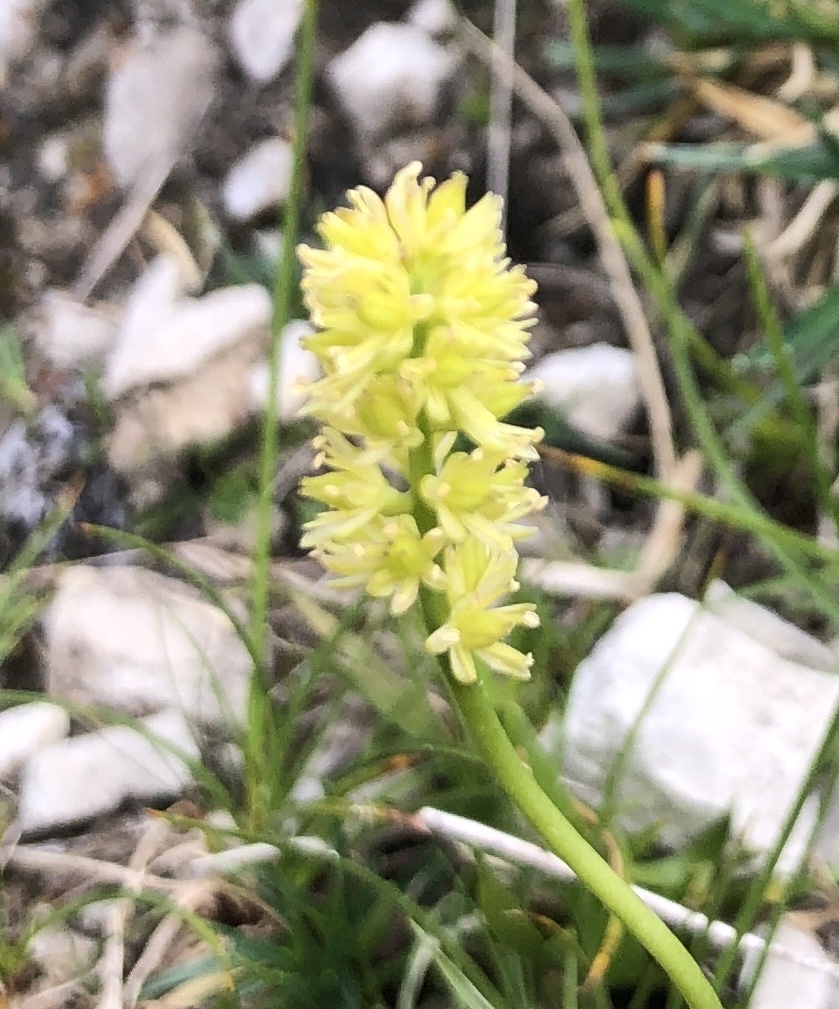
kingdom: Plantae
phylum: Tracheophyta
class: Liliopsida
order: Alismatales
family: Tofieldiaceae
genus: Tofieldia
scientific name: Tofieldia calyculata
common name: German-asphodel
